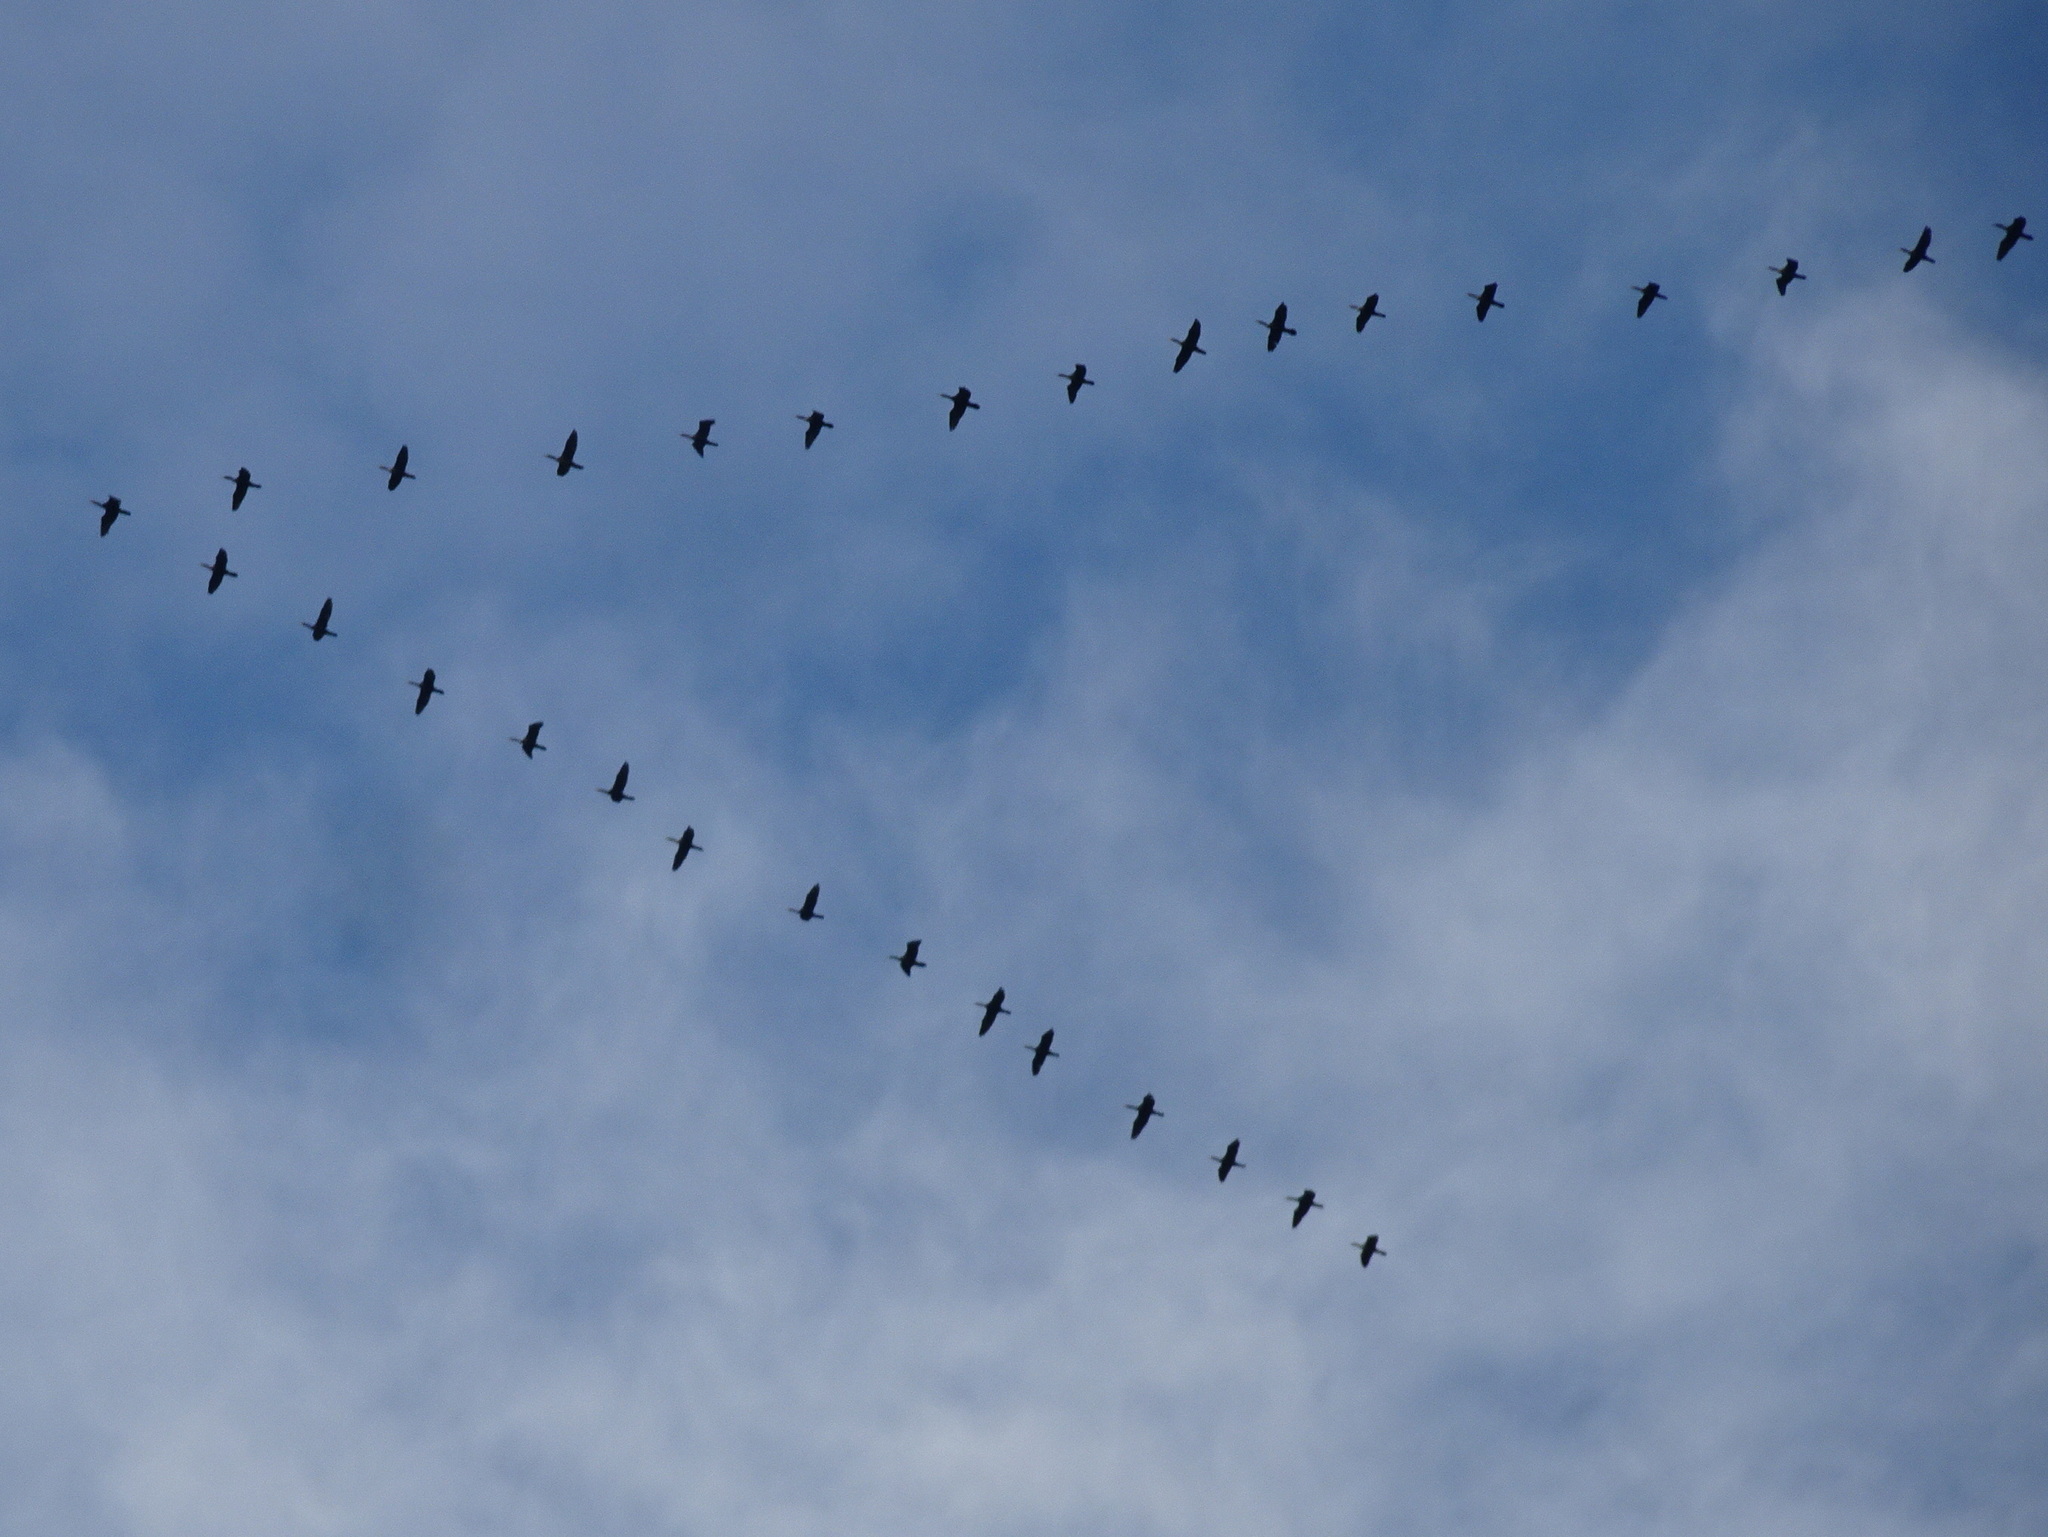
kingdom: Animalia
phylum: Chordata
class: Aves
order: Suliformes
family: Phalacrocoracidae
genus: Phalacrocorax
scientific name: Phalacrocorax auritus
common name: Double-crested cormorant
